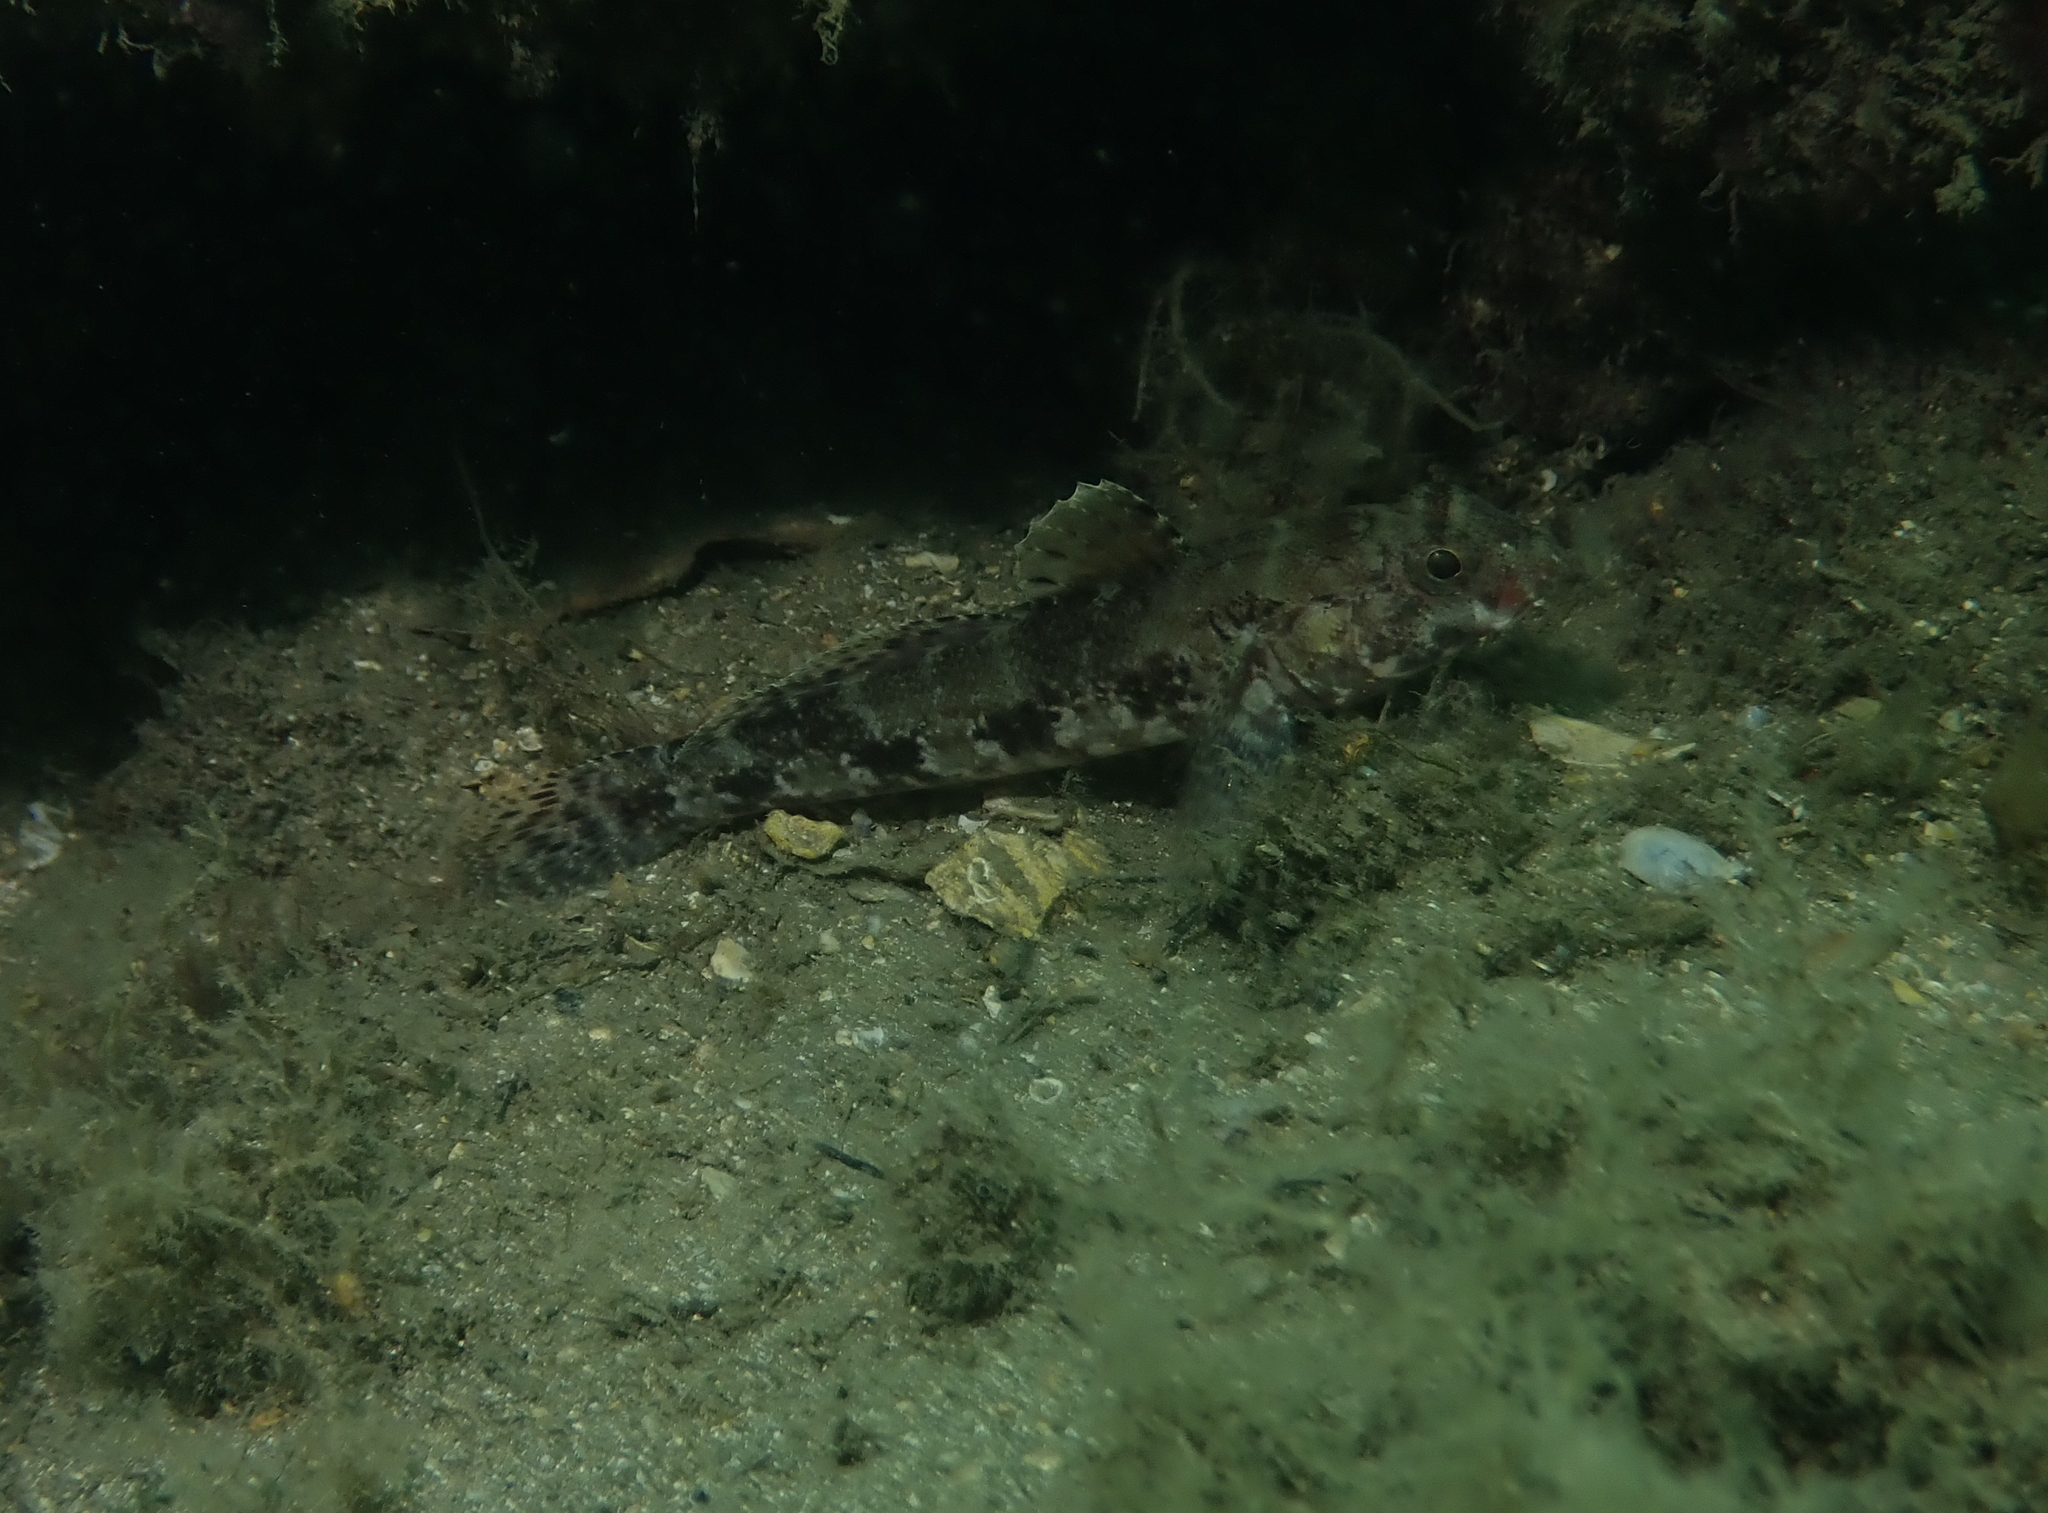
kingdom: Animalia
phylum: Chordata
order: Perciformes
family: Gobiidae
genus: Gobius
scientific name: Gobius cruentatus
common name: Red-mouthed goby
